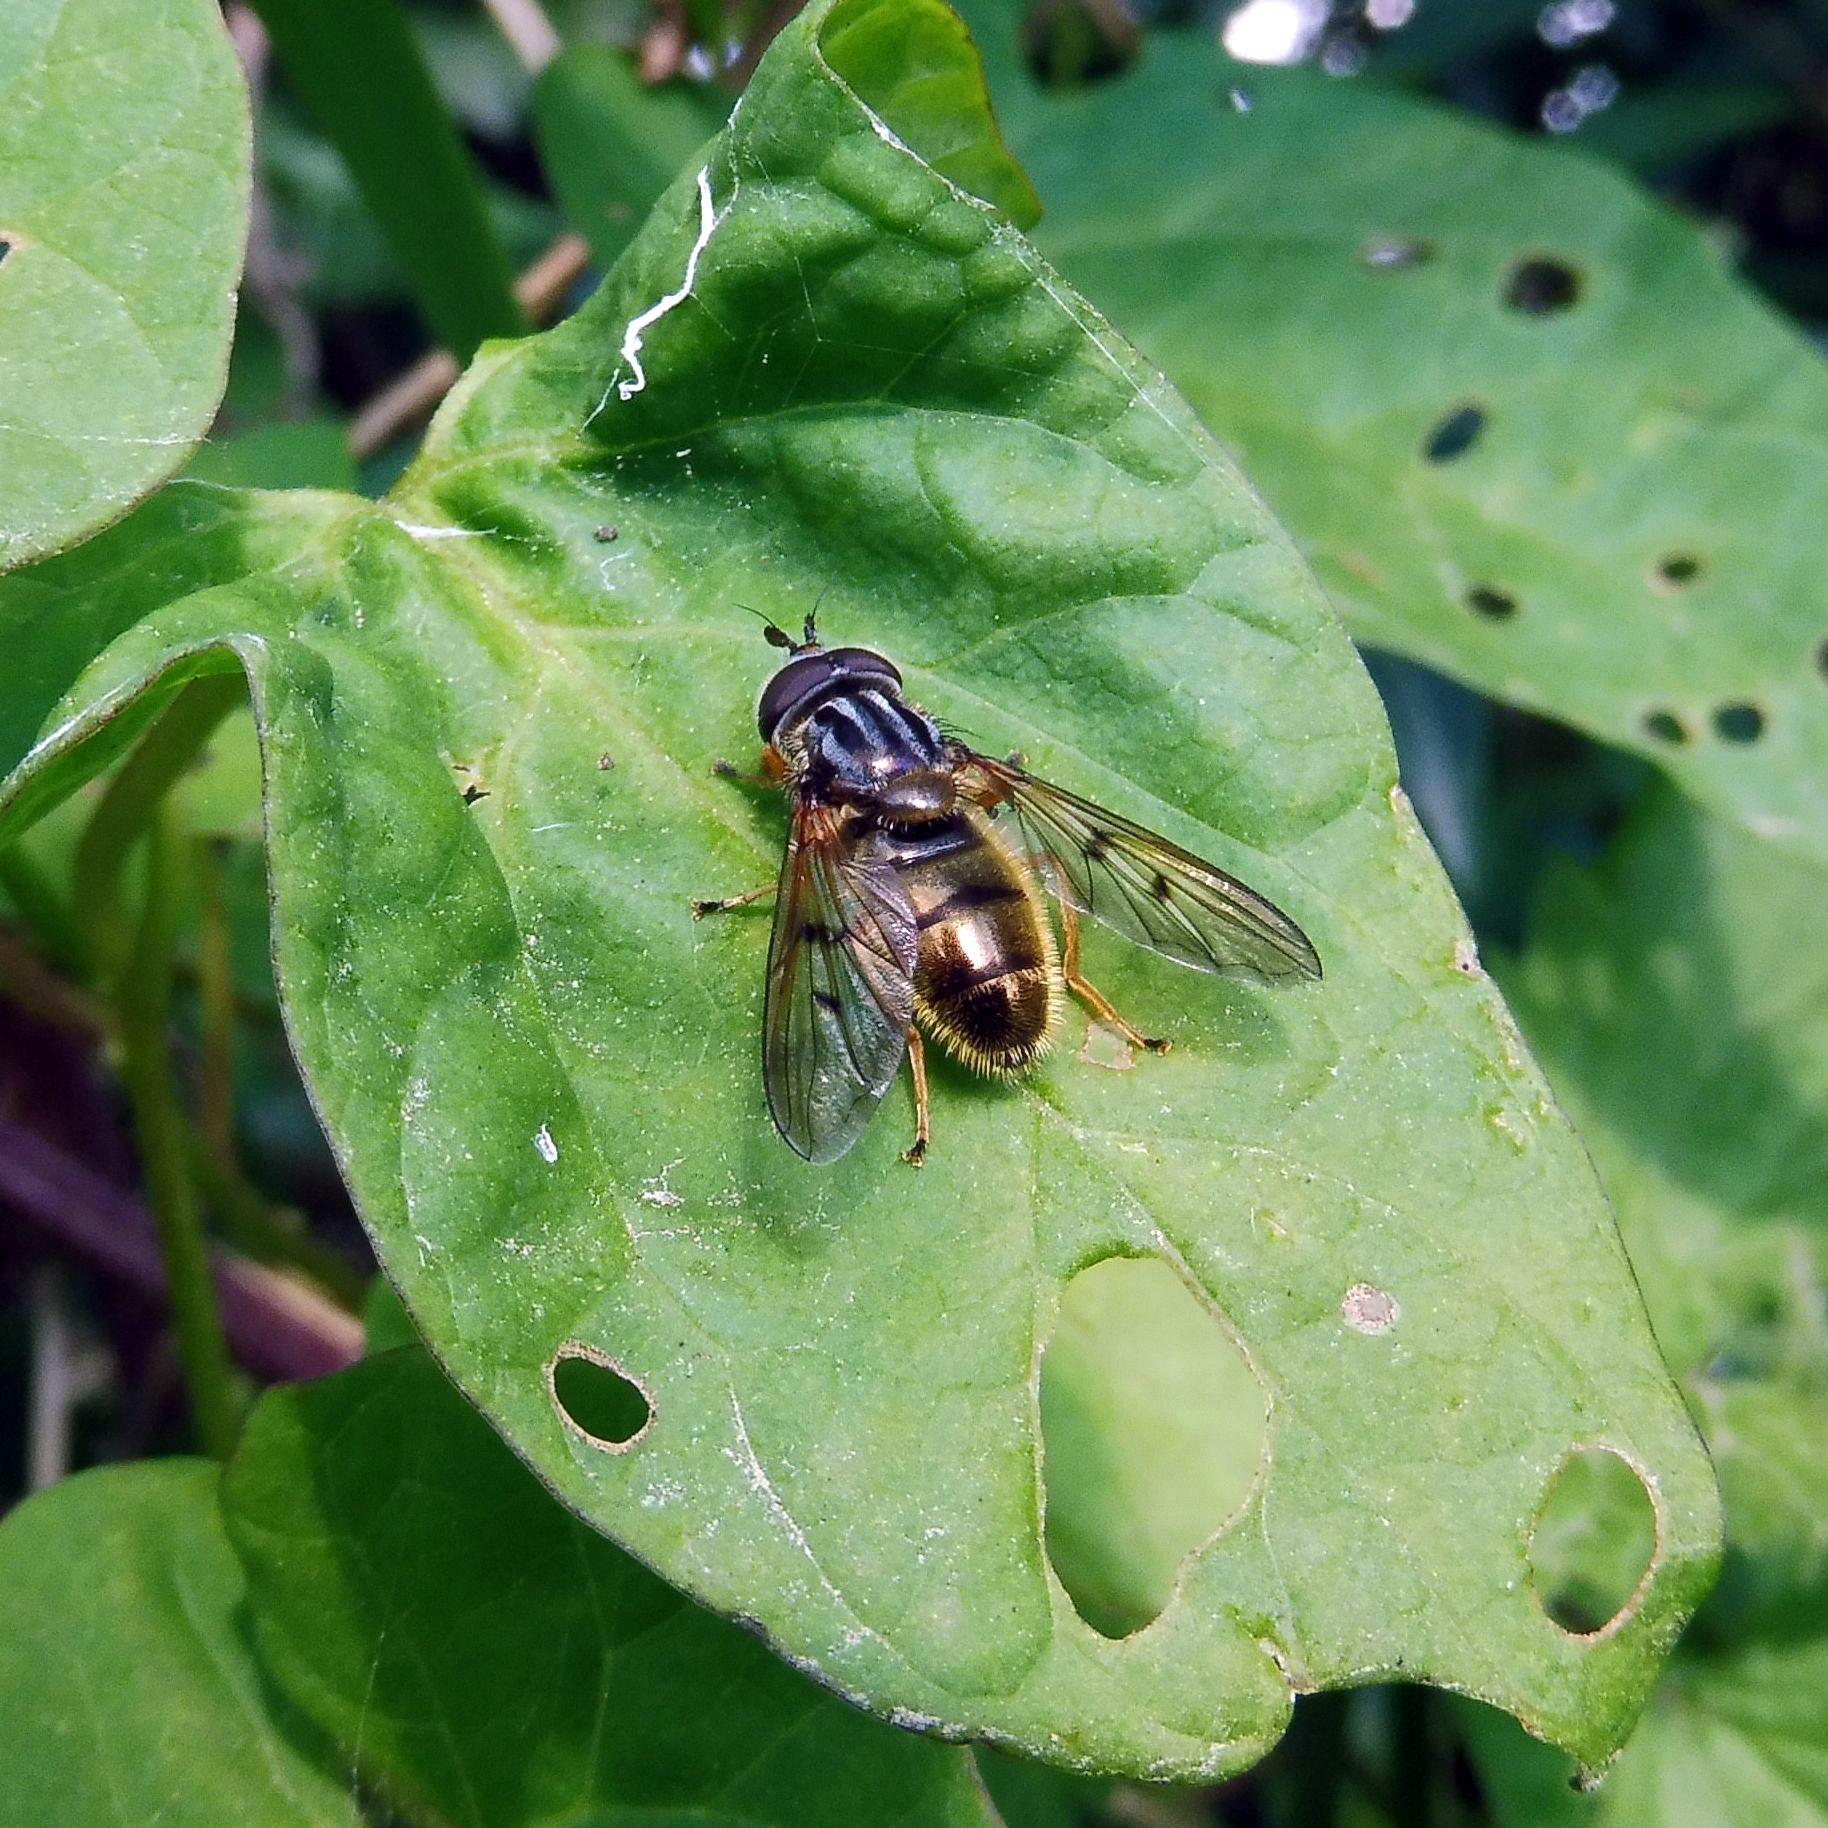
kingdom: Animalia
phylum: Arthropoda
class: Insecta
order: Diptera
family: Syrphidae
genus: Ferdinandea
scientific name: Ferdinandea cuprea
